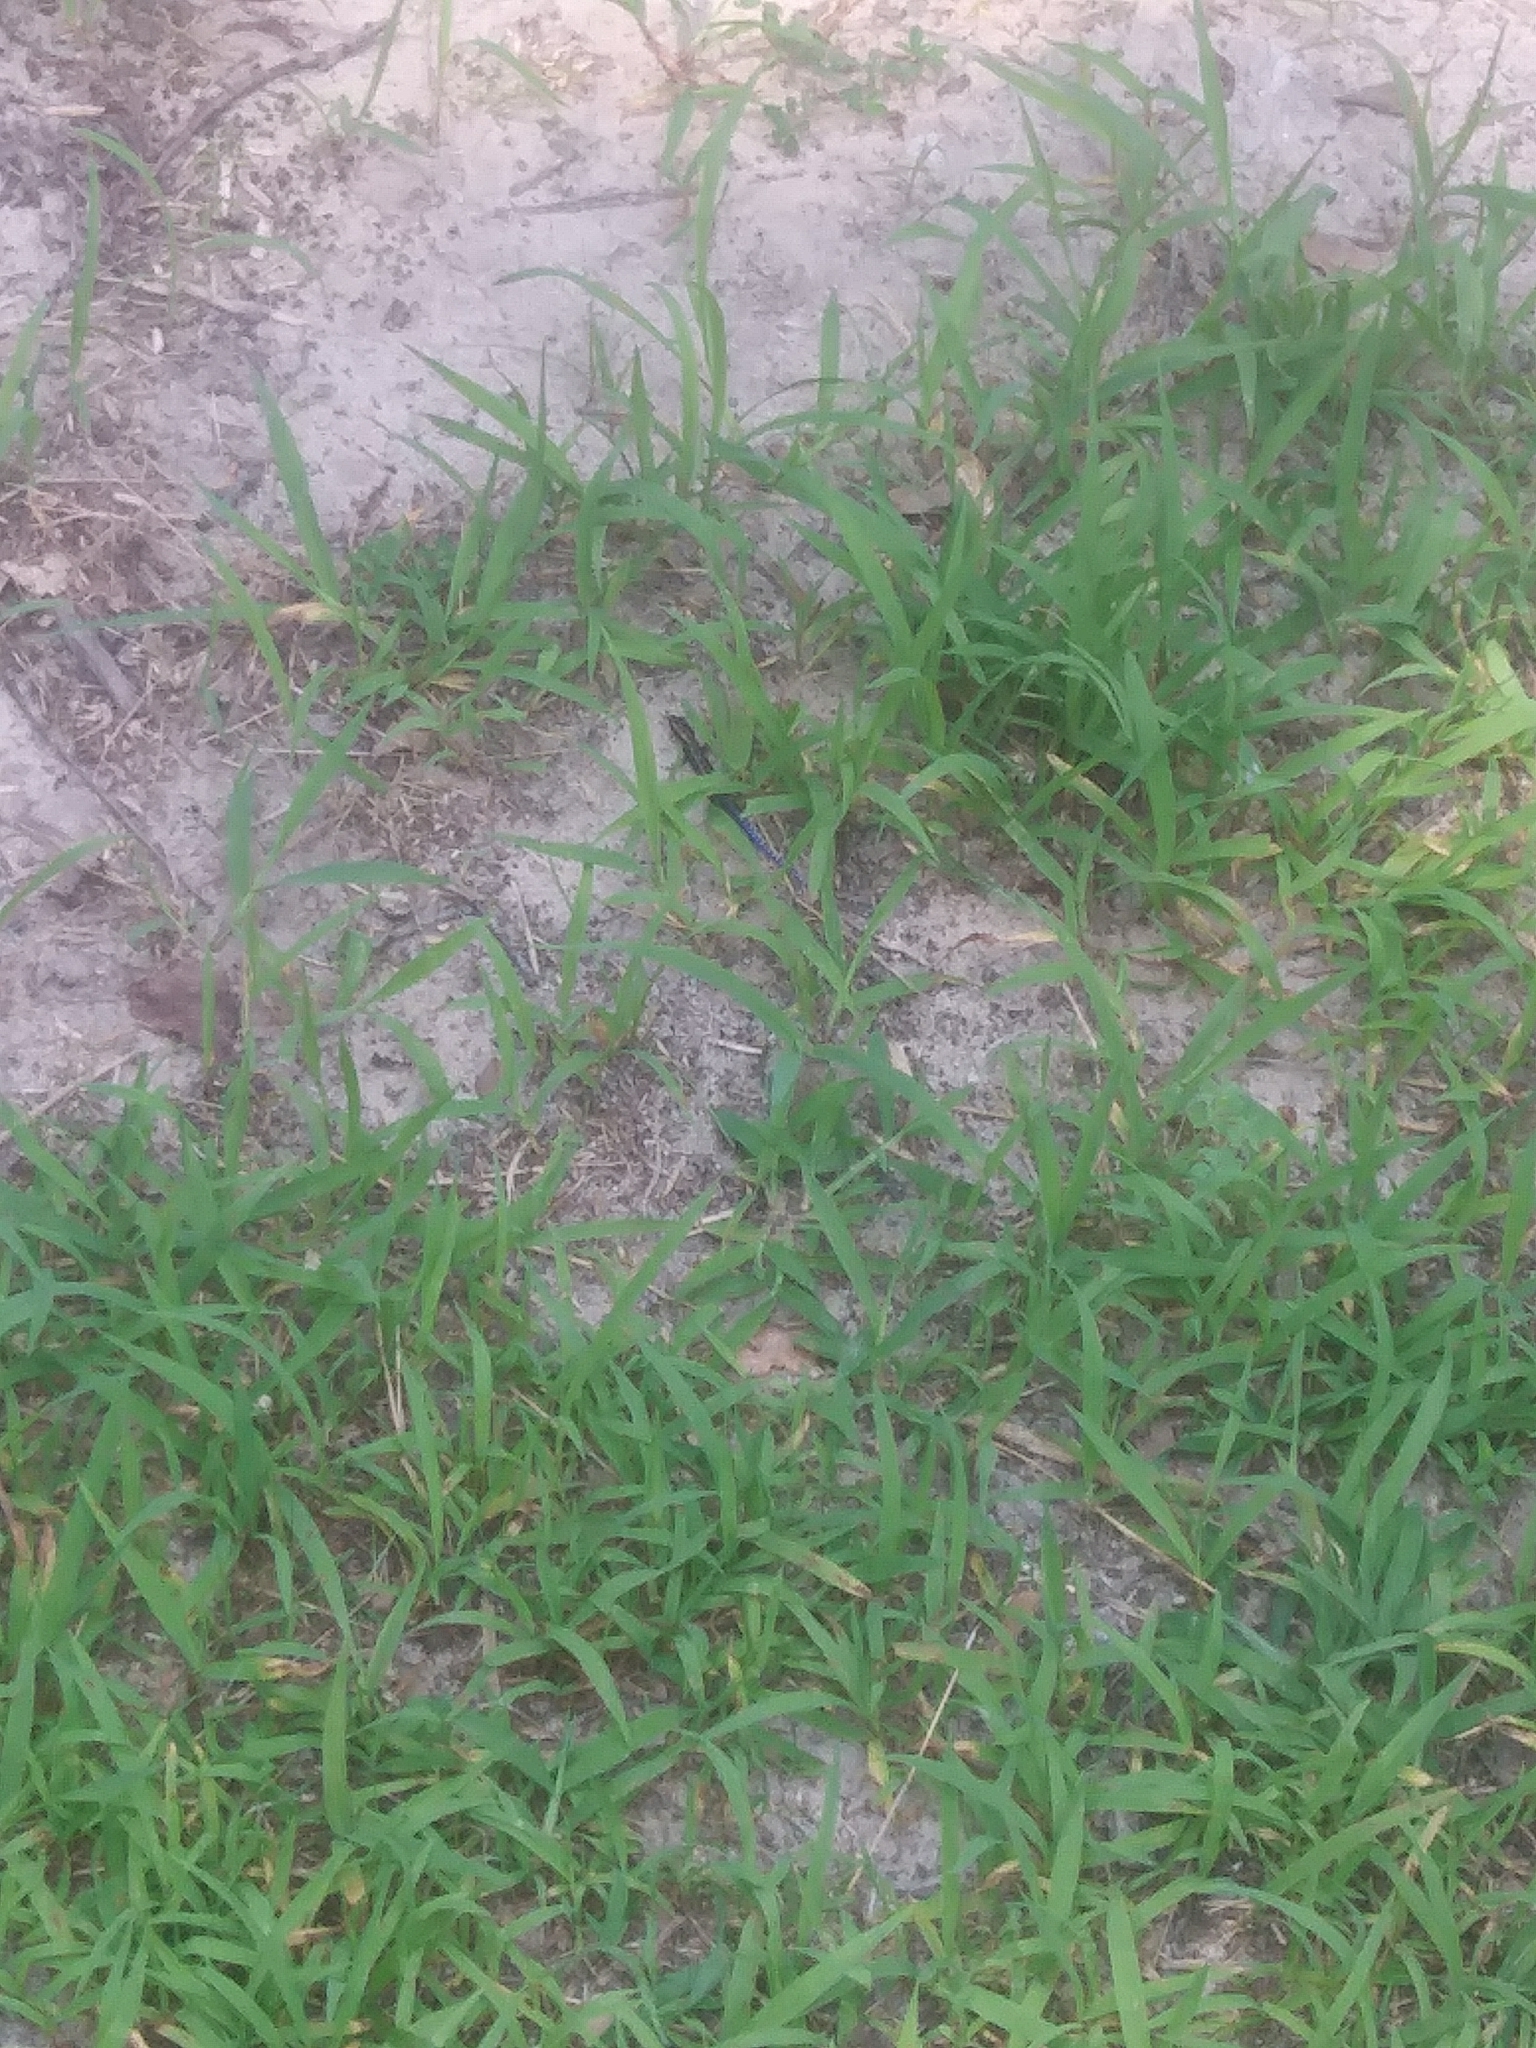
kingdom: Animalia
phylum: Chordata
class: Squamata
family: Scincidae
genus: Plestiodon
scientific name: Plestiodon fasciatus
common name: Five-lined skink
